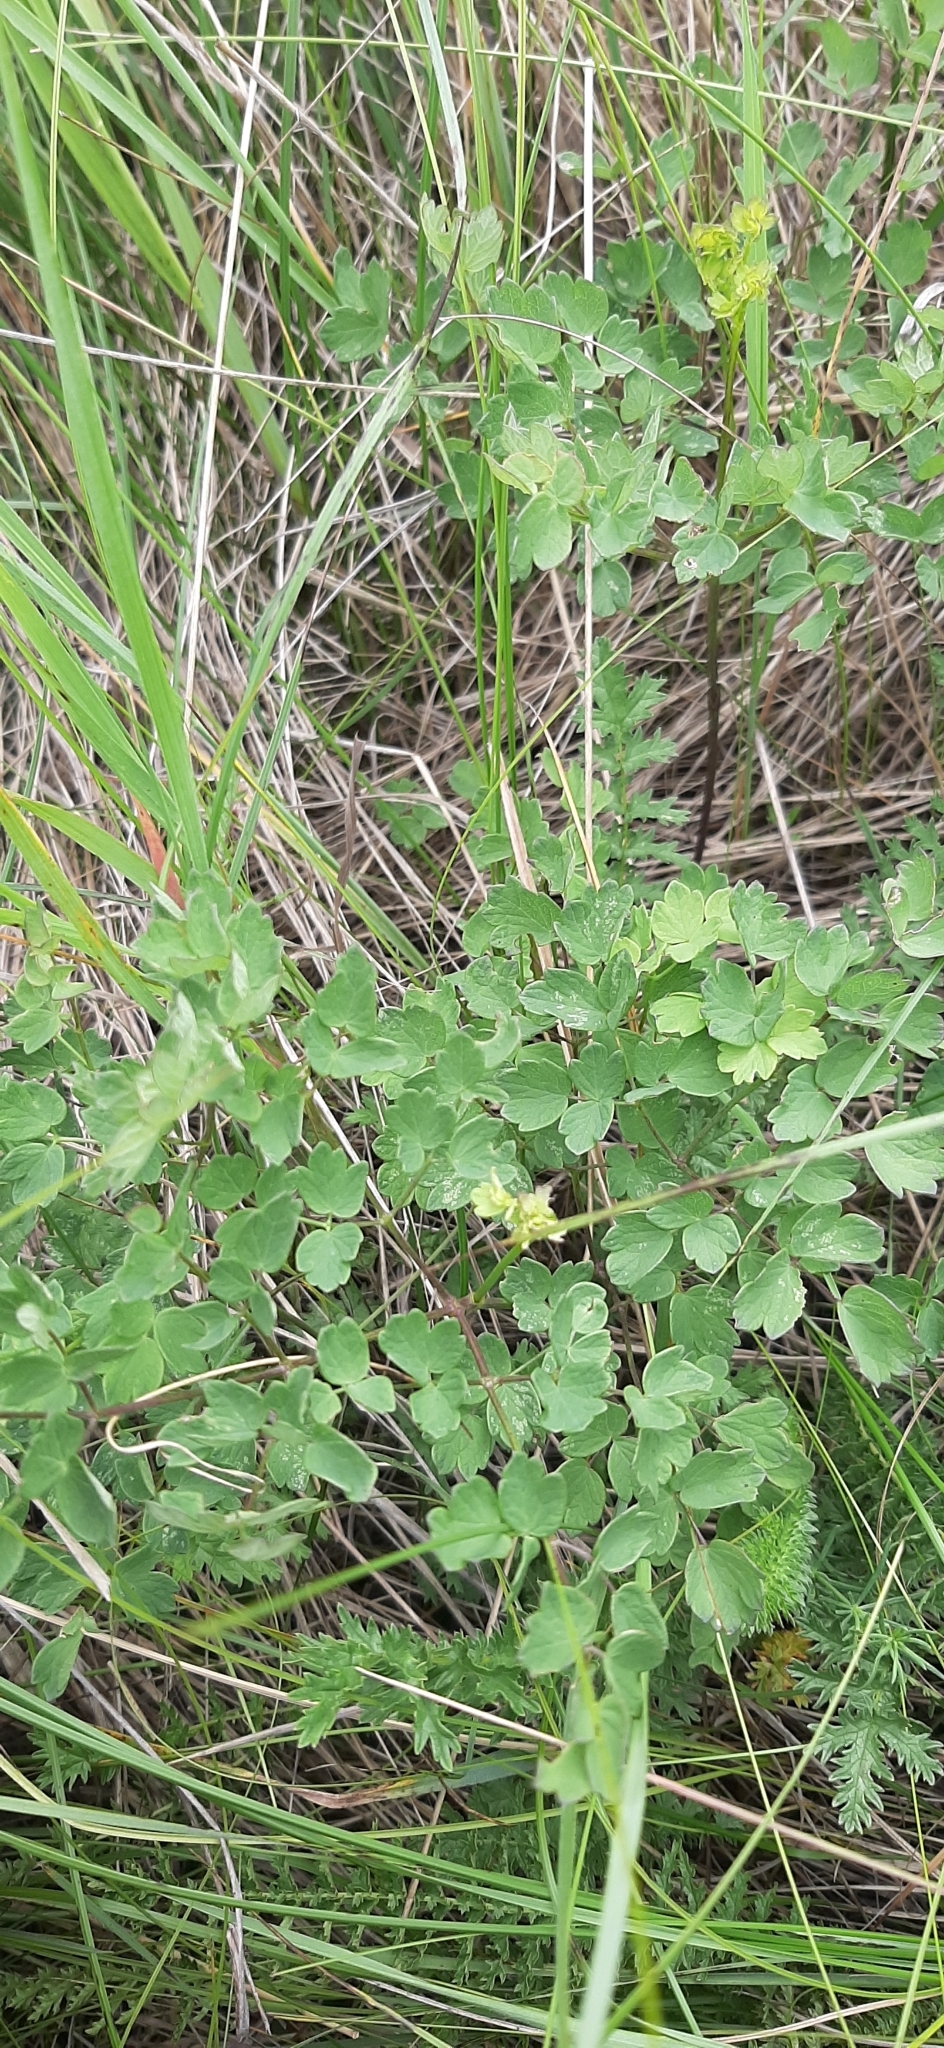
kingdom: Plantae
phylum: Tracheophyta
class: Magnoliopsida
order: Ranunculales
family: Ranunculaceae
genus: Thalictrum
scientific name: Thalictrum minus
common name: Lesser meadow-rue
